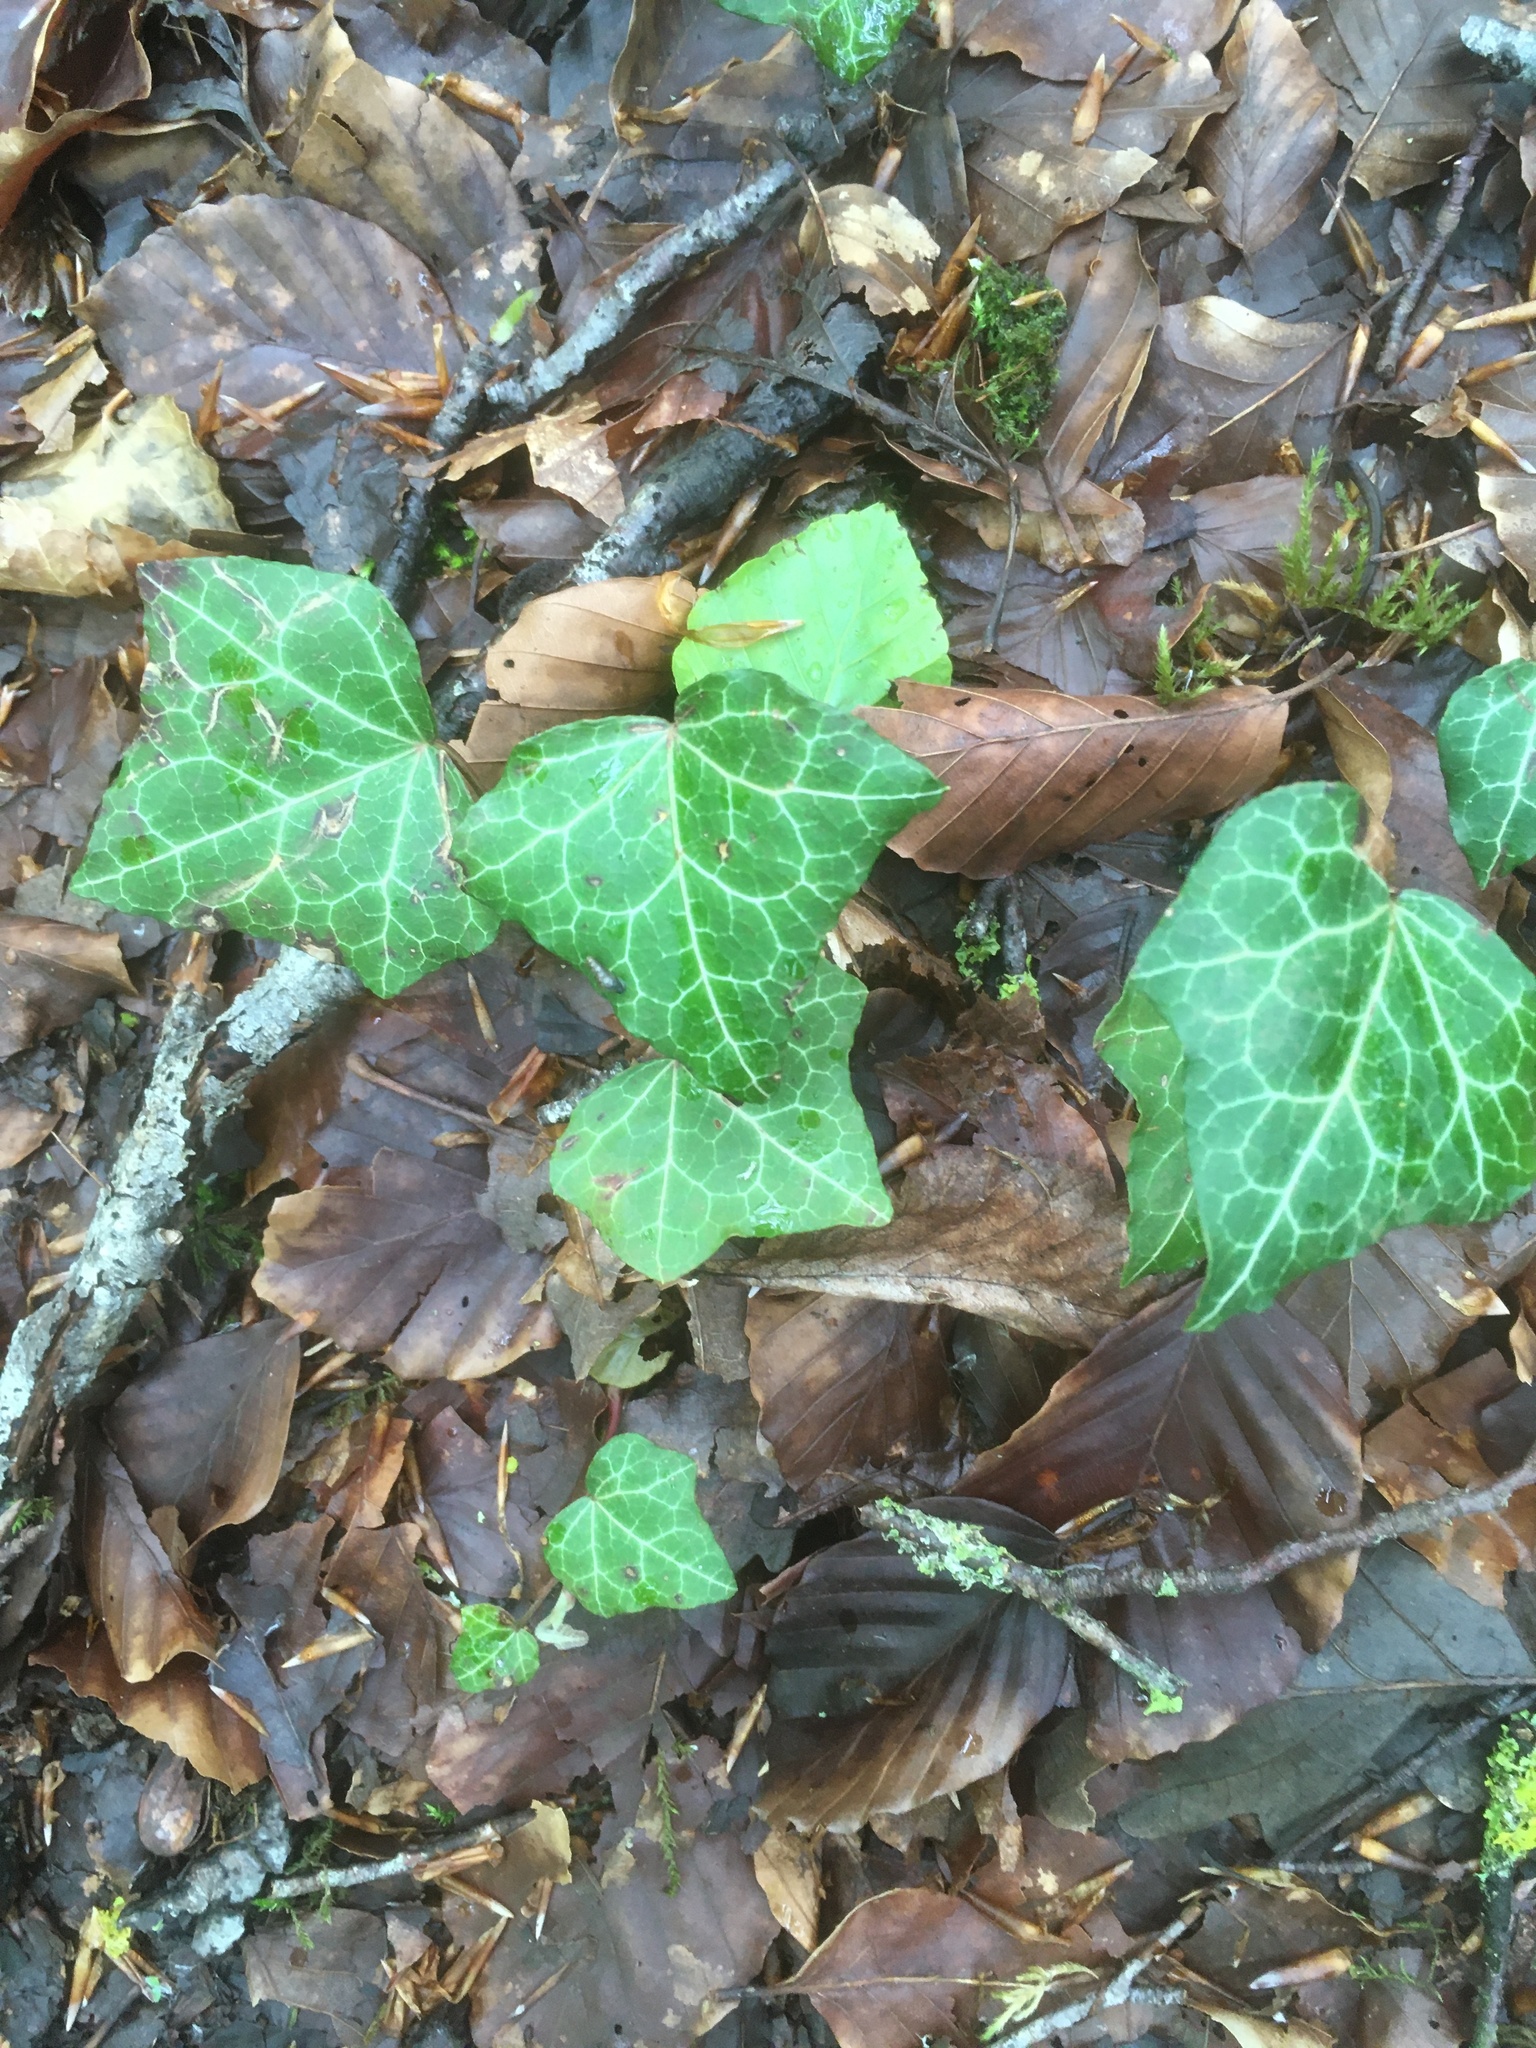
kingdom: Plantae
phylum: Tracheophyta
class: Magnoliopsida
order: Apiales
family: Araliaceae
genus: Hedera
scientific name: Hedera helix
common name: Ivy
